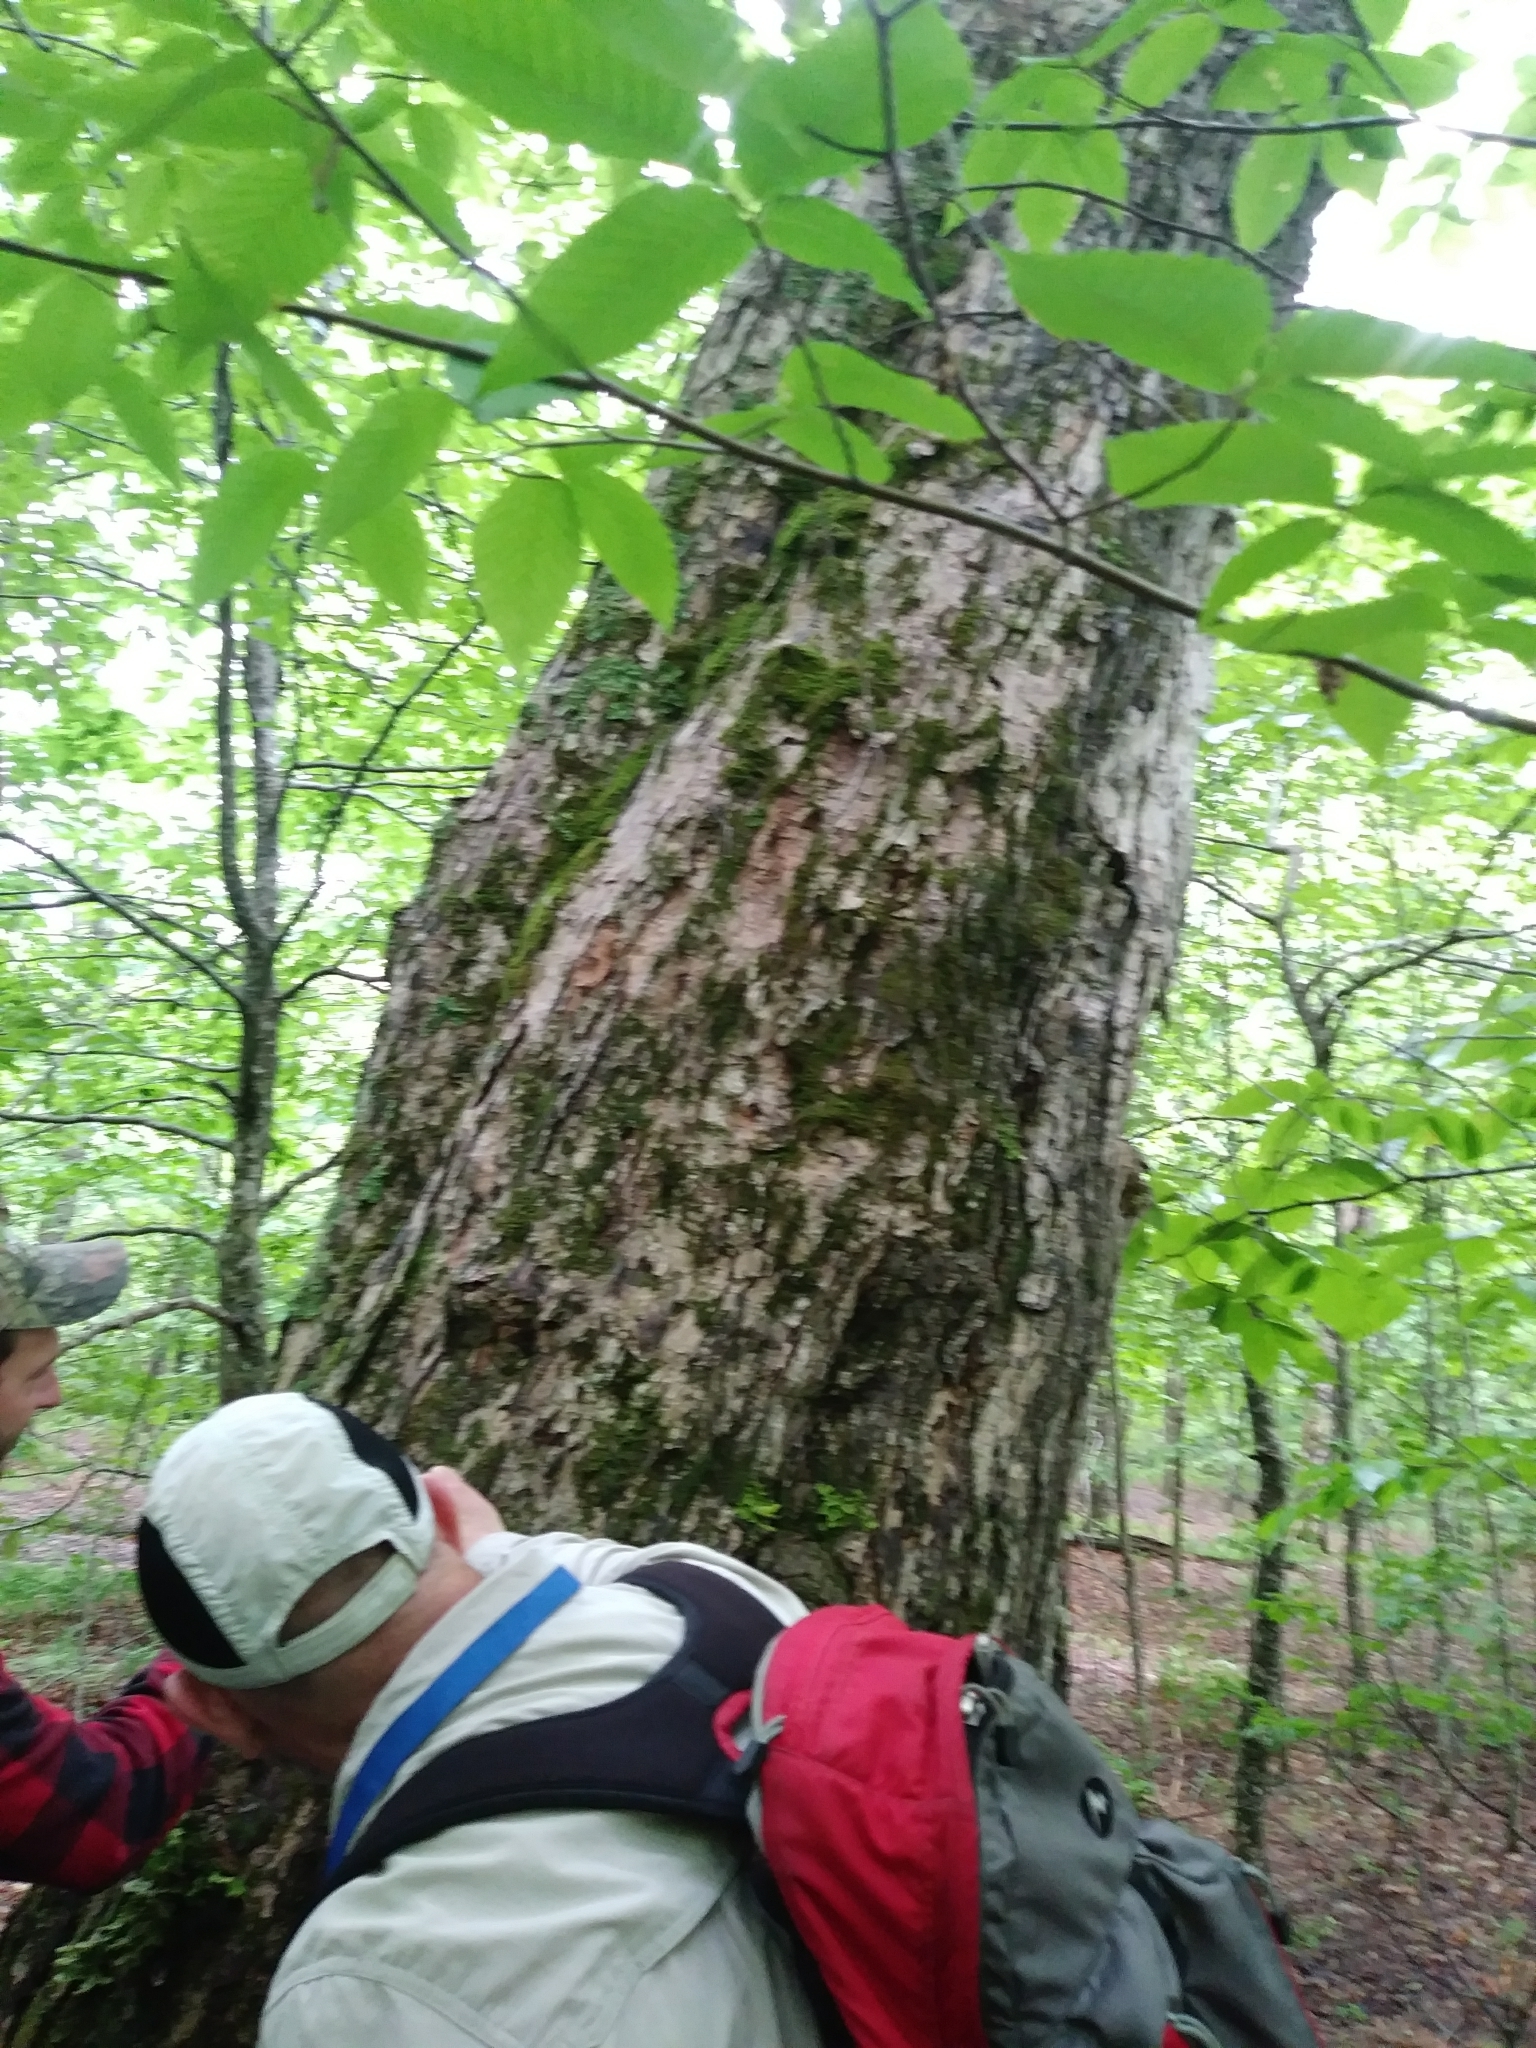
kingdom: Plantae
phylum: Tracheophyta
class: Magnoliopsida
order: Sapindales
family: Sapindaceae
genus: Acer
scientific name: Acer saccharum
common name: Sugar maple
